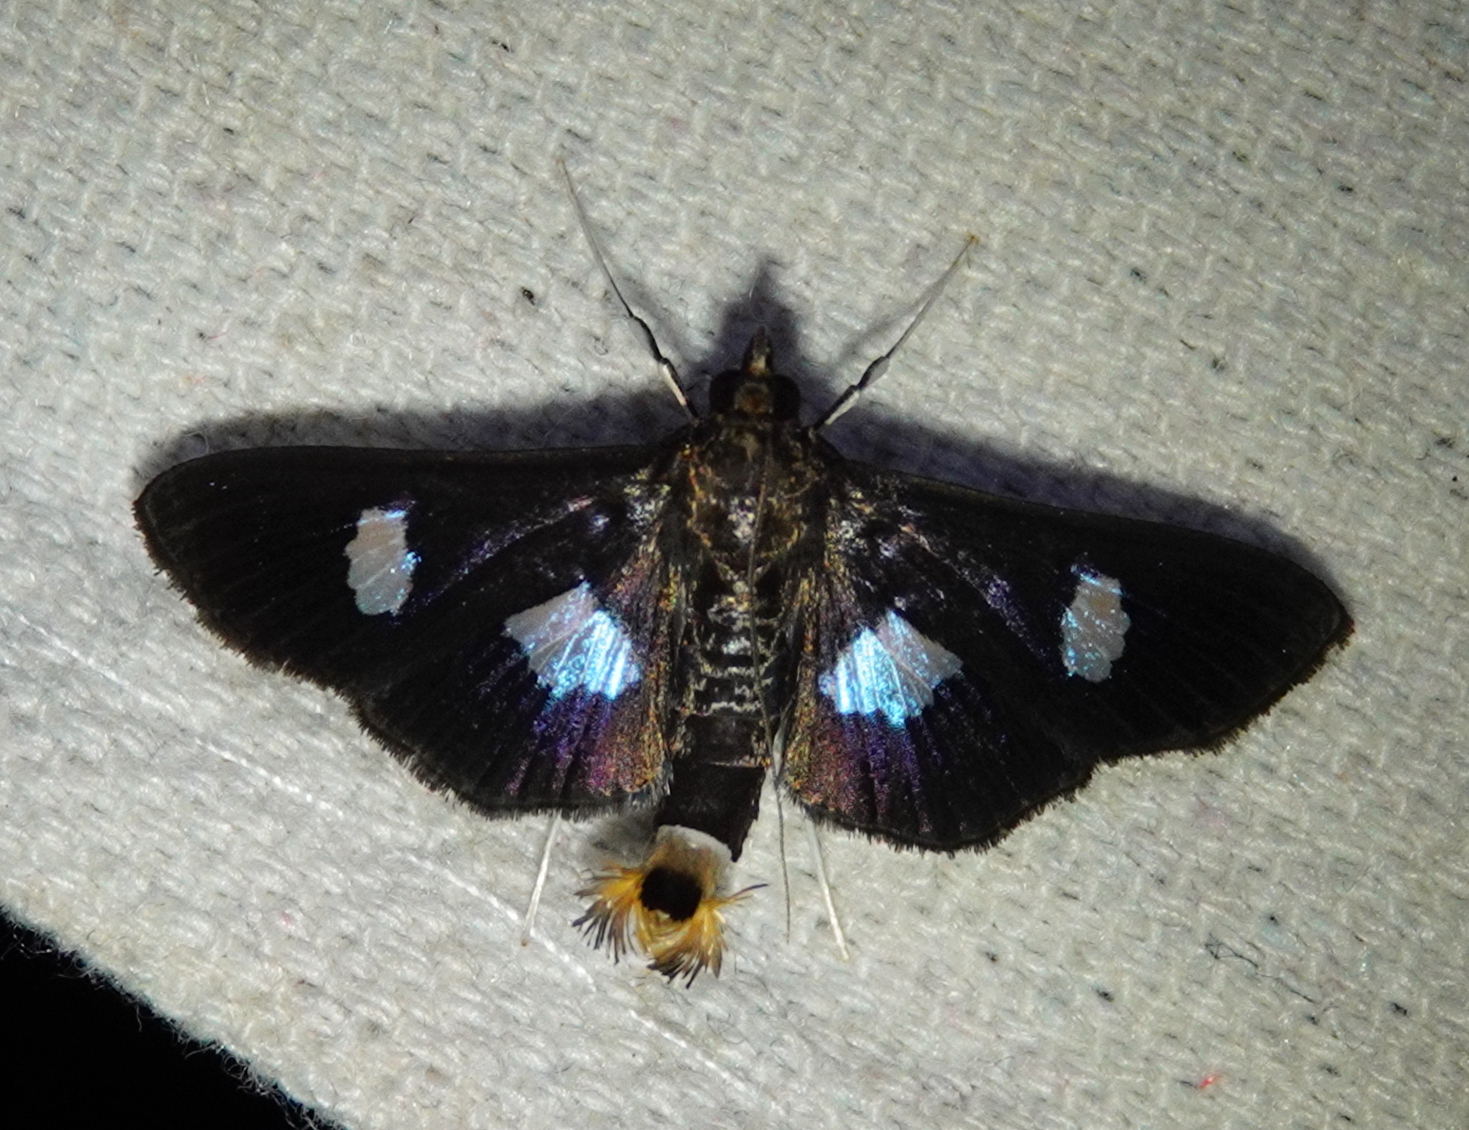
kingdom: Animalia
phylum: Arthropoda
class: Insecta
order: Lepidoptera
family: Crambidae
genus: Diaphania
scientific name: Diaphania exclusalis
